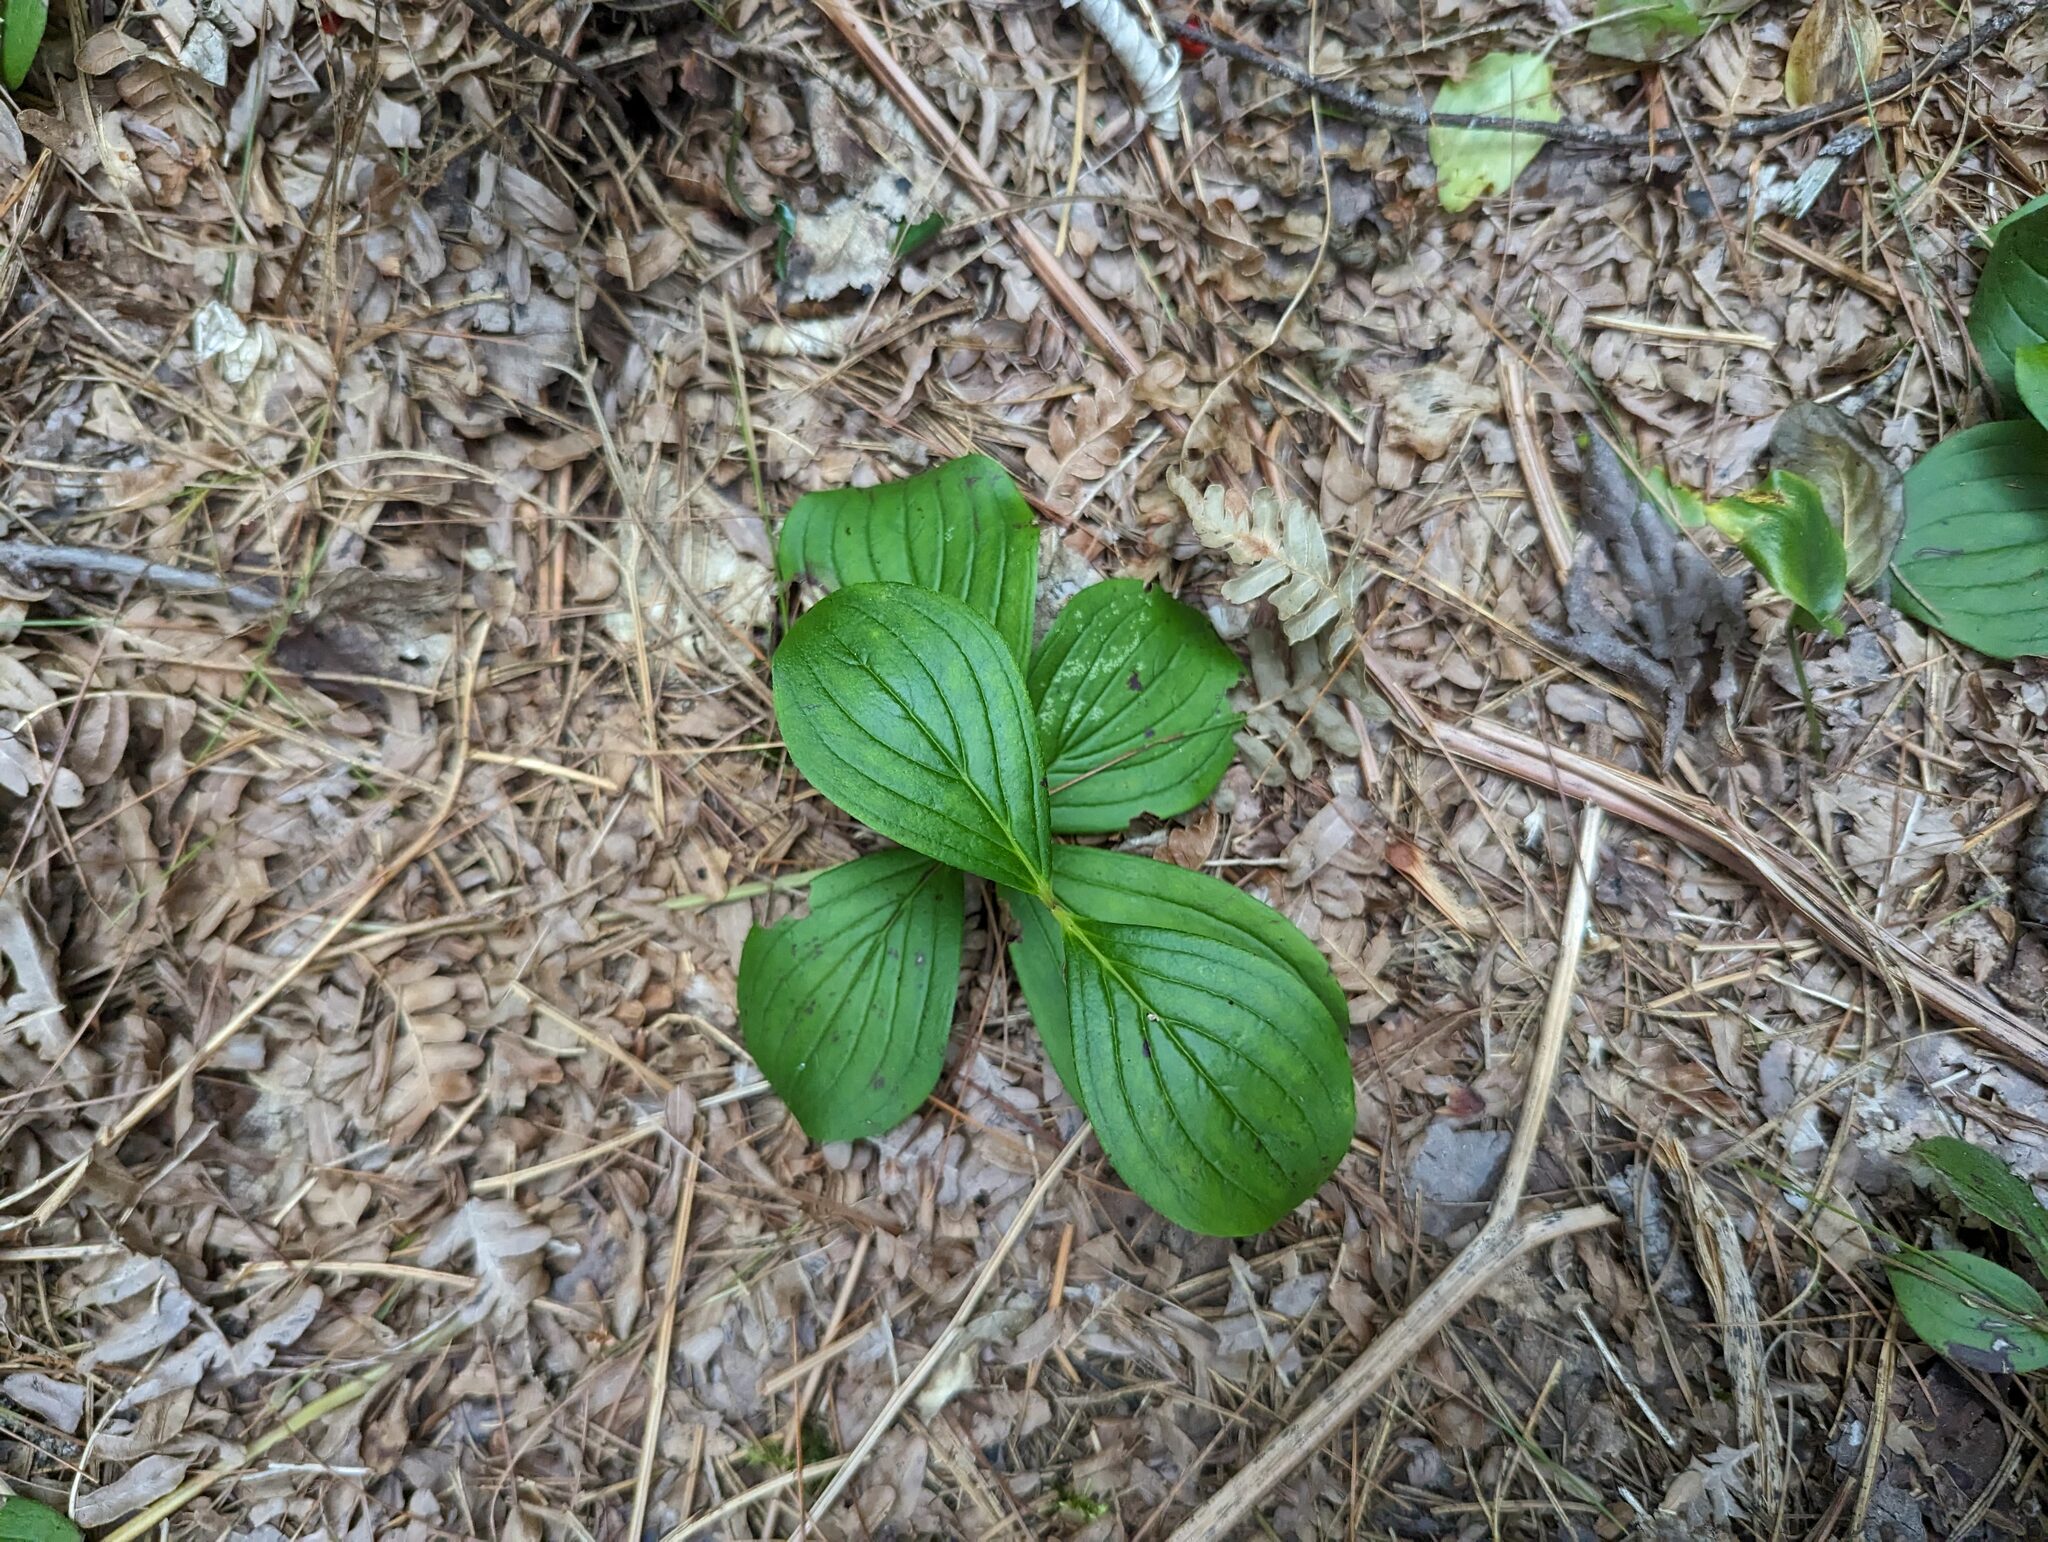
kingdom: Plantae
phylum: Tracheophyta
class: Magnoliopsida
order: Cornales
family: Cornaceae
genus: Cornus
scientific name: Cornus canadensis
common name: Creeping dogwood
